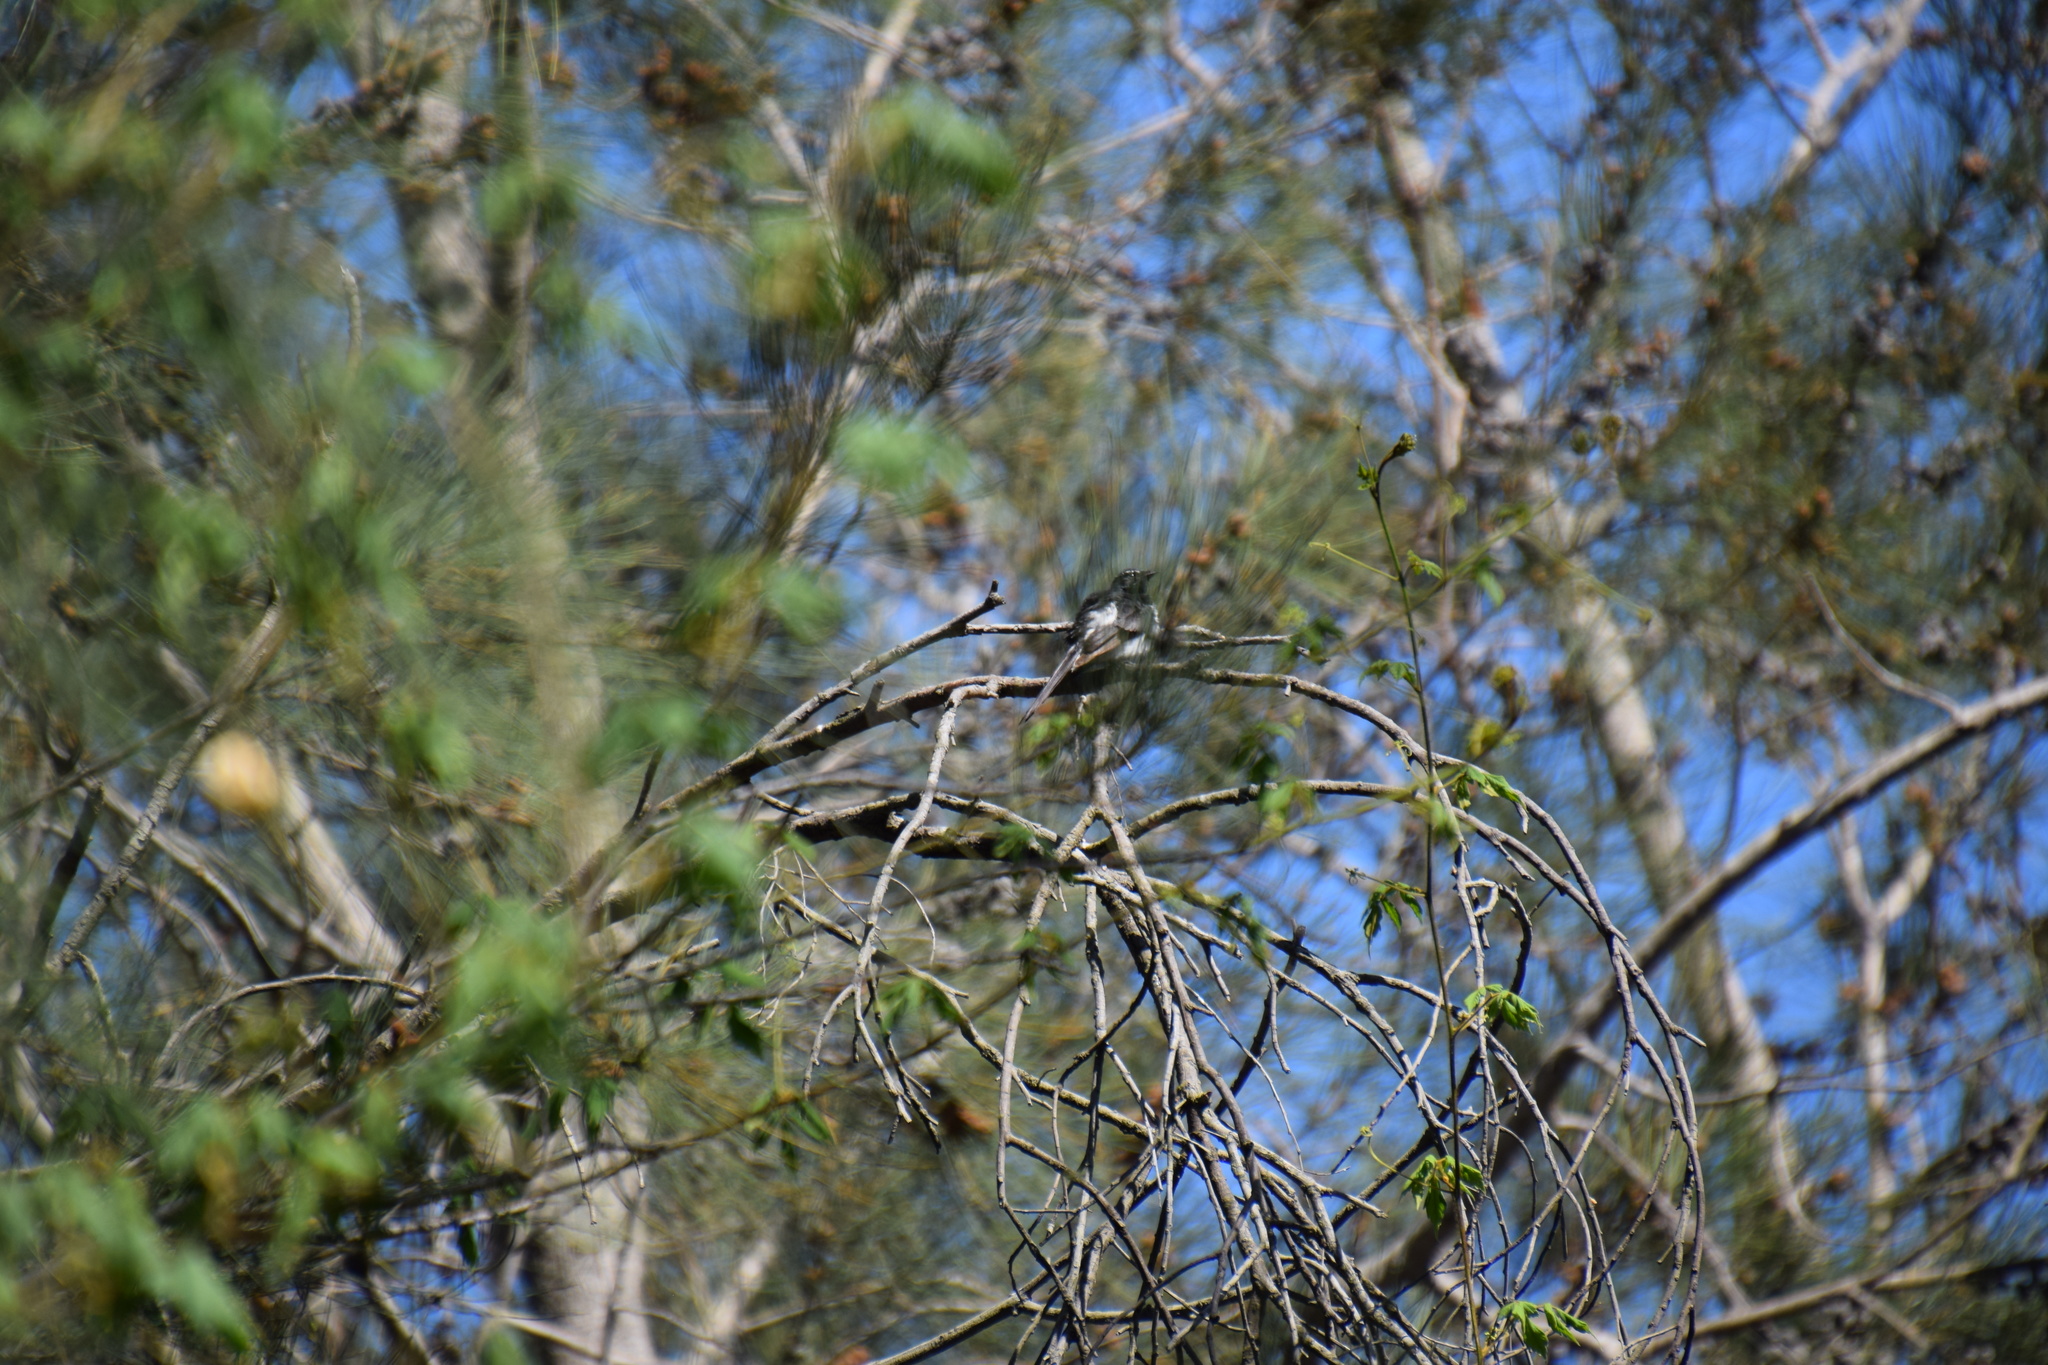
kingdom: Animalia
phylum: Chordata
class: Aves
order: Passeriformes
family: Rhipiduridae
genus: Rhipidura
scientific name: Rhipidura leucophrys
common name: Willie wagtail
